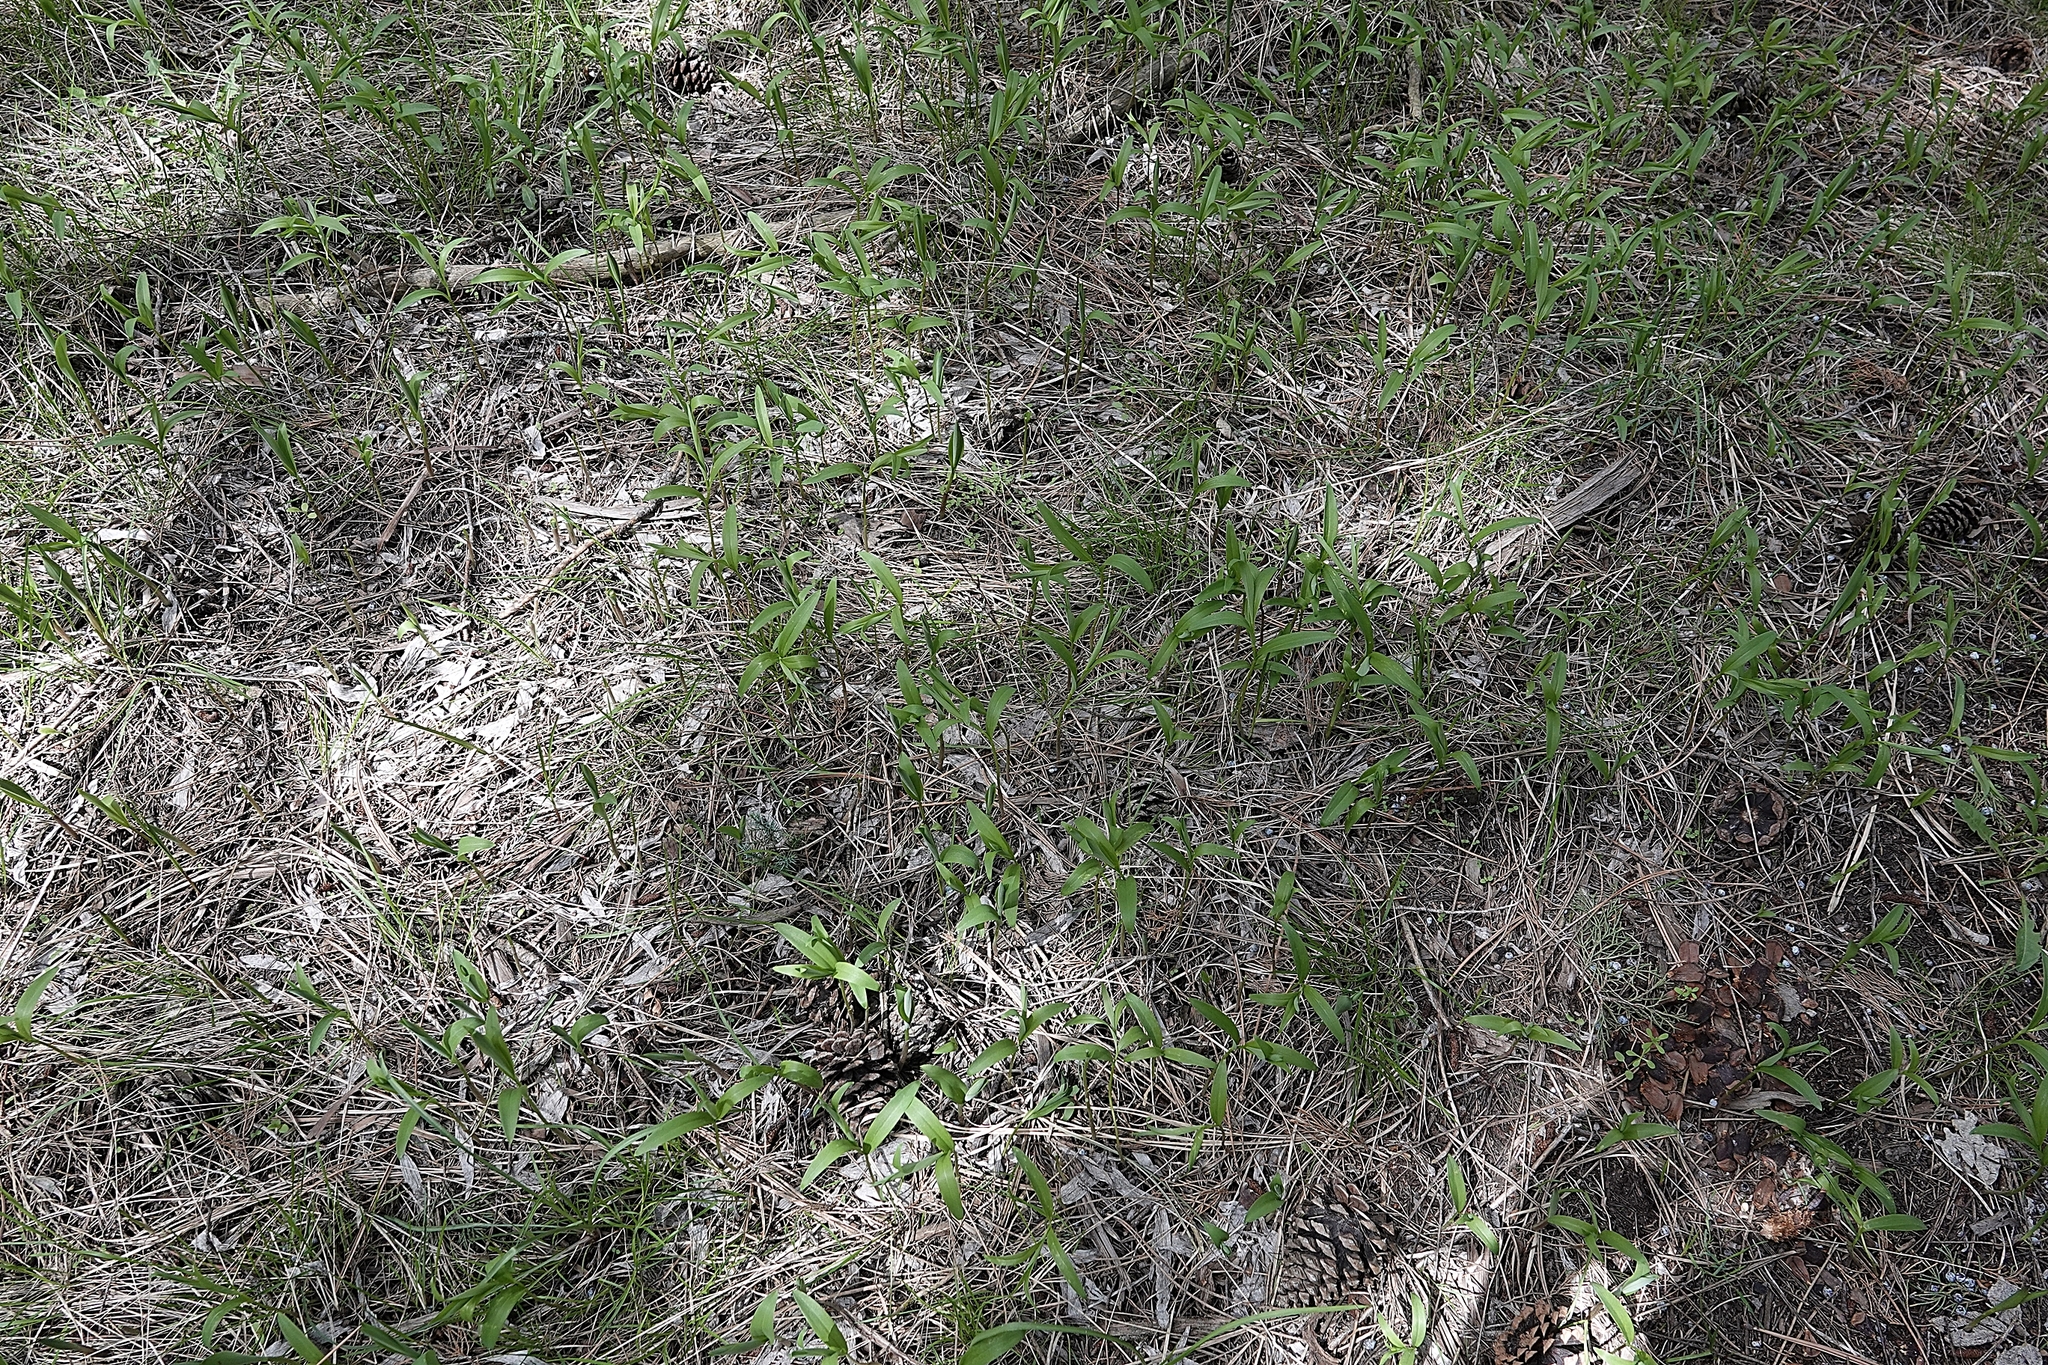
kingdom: Plantae
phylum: Tracheophyta
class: Liliopsida
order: Asparagales
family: Asparagaceae
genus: Maianthemum
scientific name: Maianthemum stellatum
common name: Little false solomon's seal
